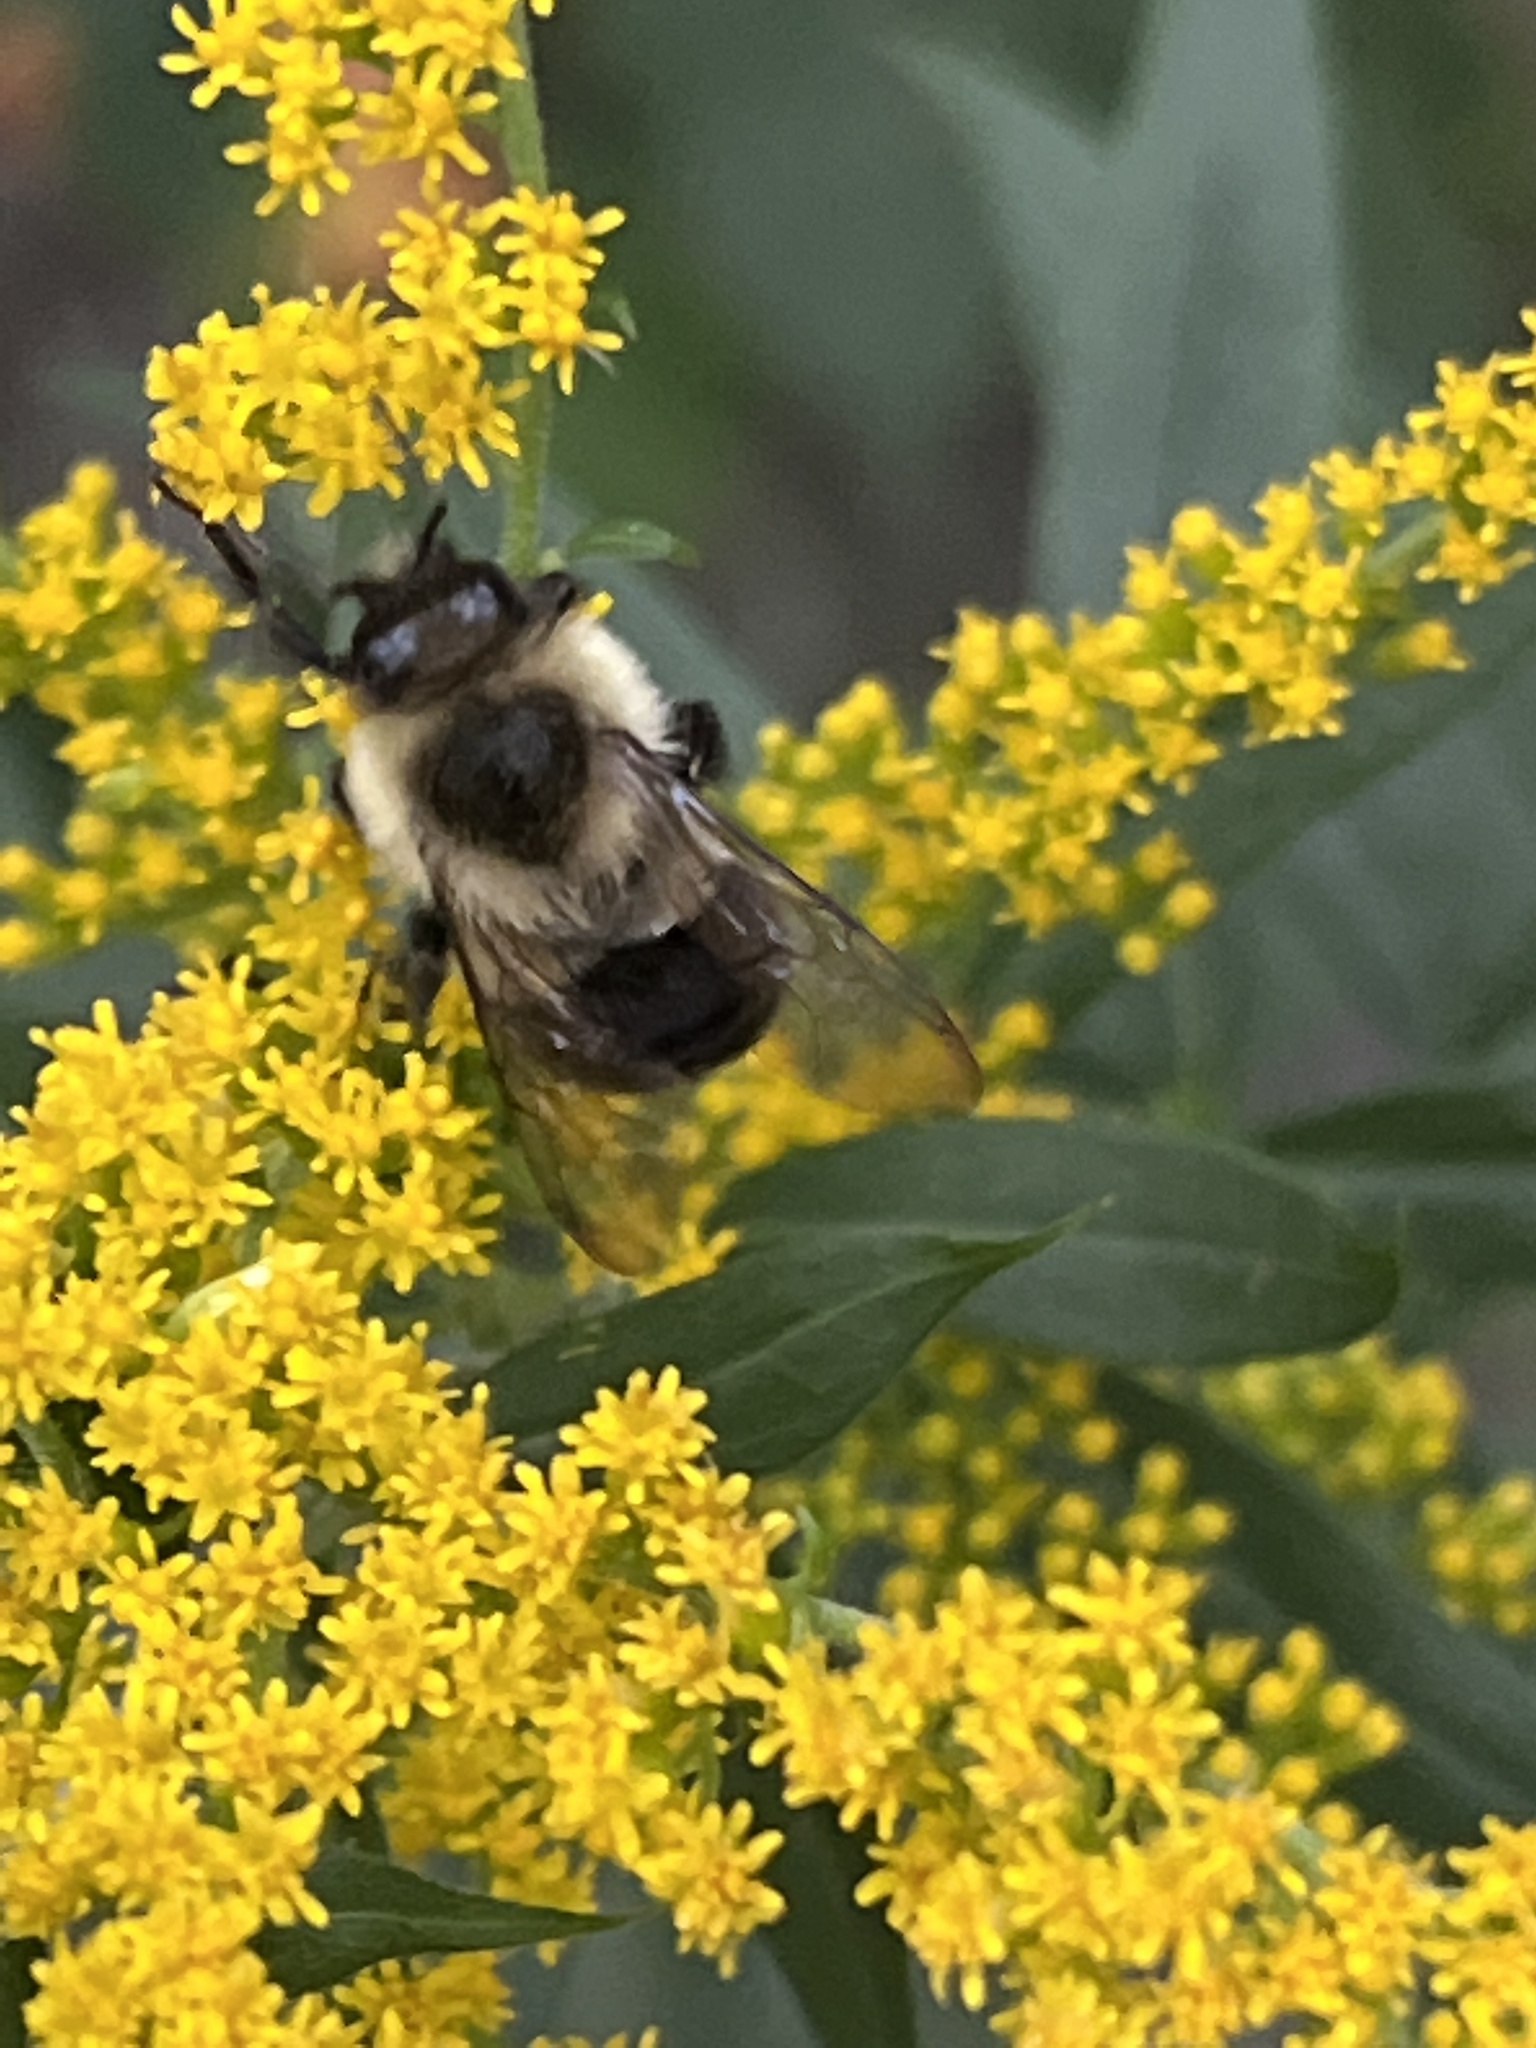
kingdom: Animalia
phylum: Arthropoda
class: Insecta
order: Hymenoptera
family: Apidae
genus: Bombus
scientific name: Bombus impatiens
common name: Common eastern bumble bee
